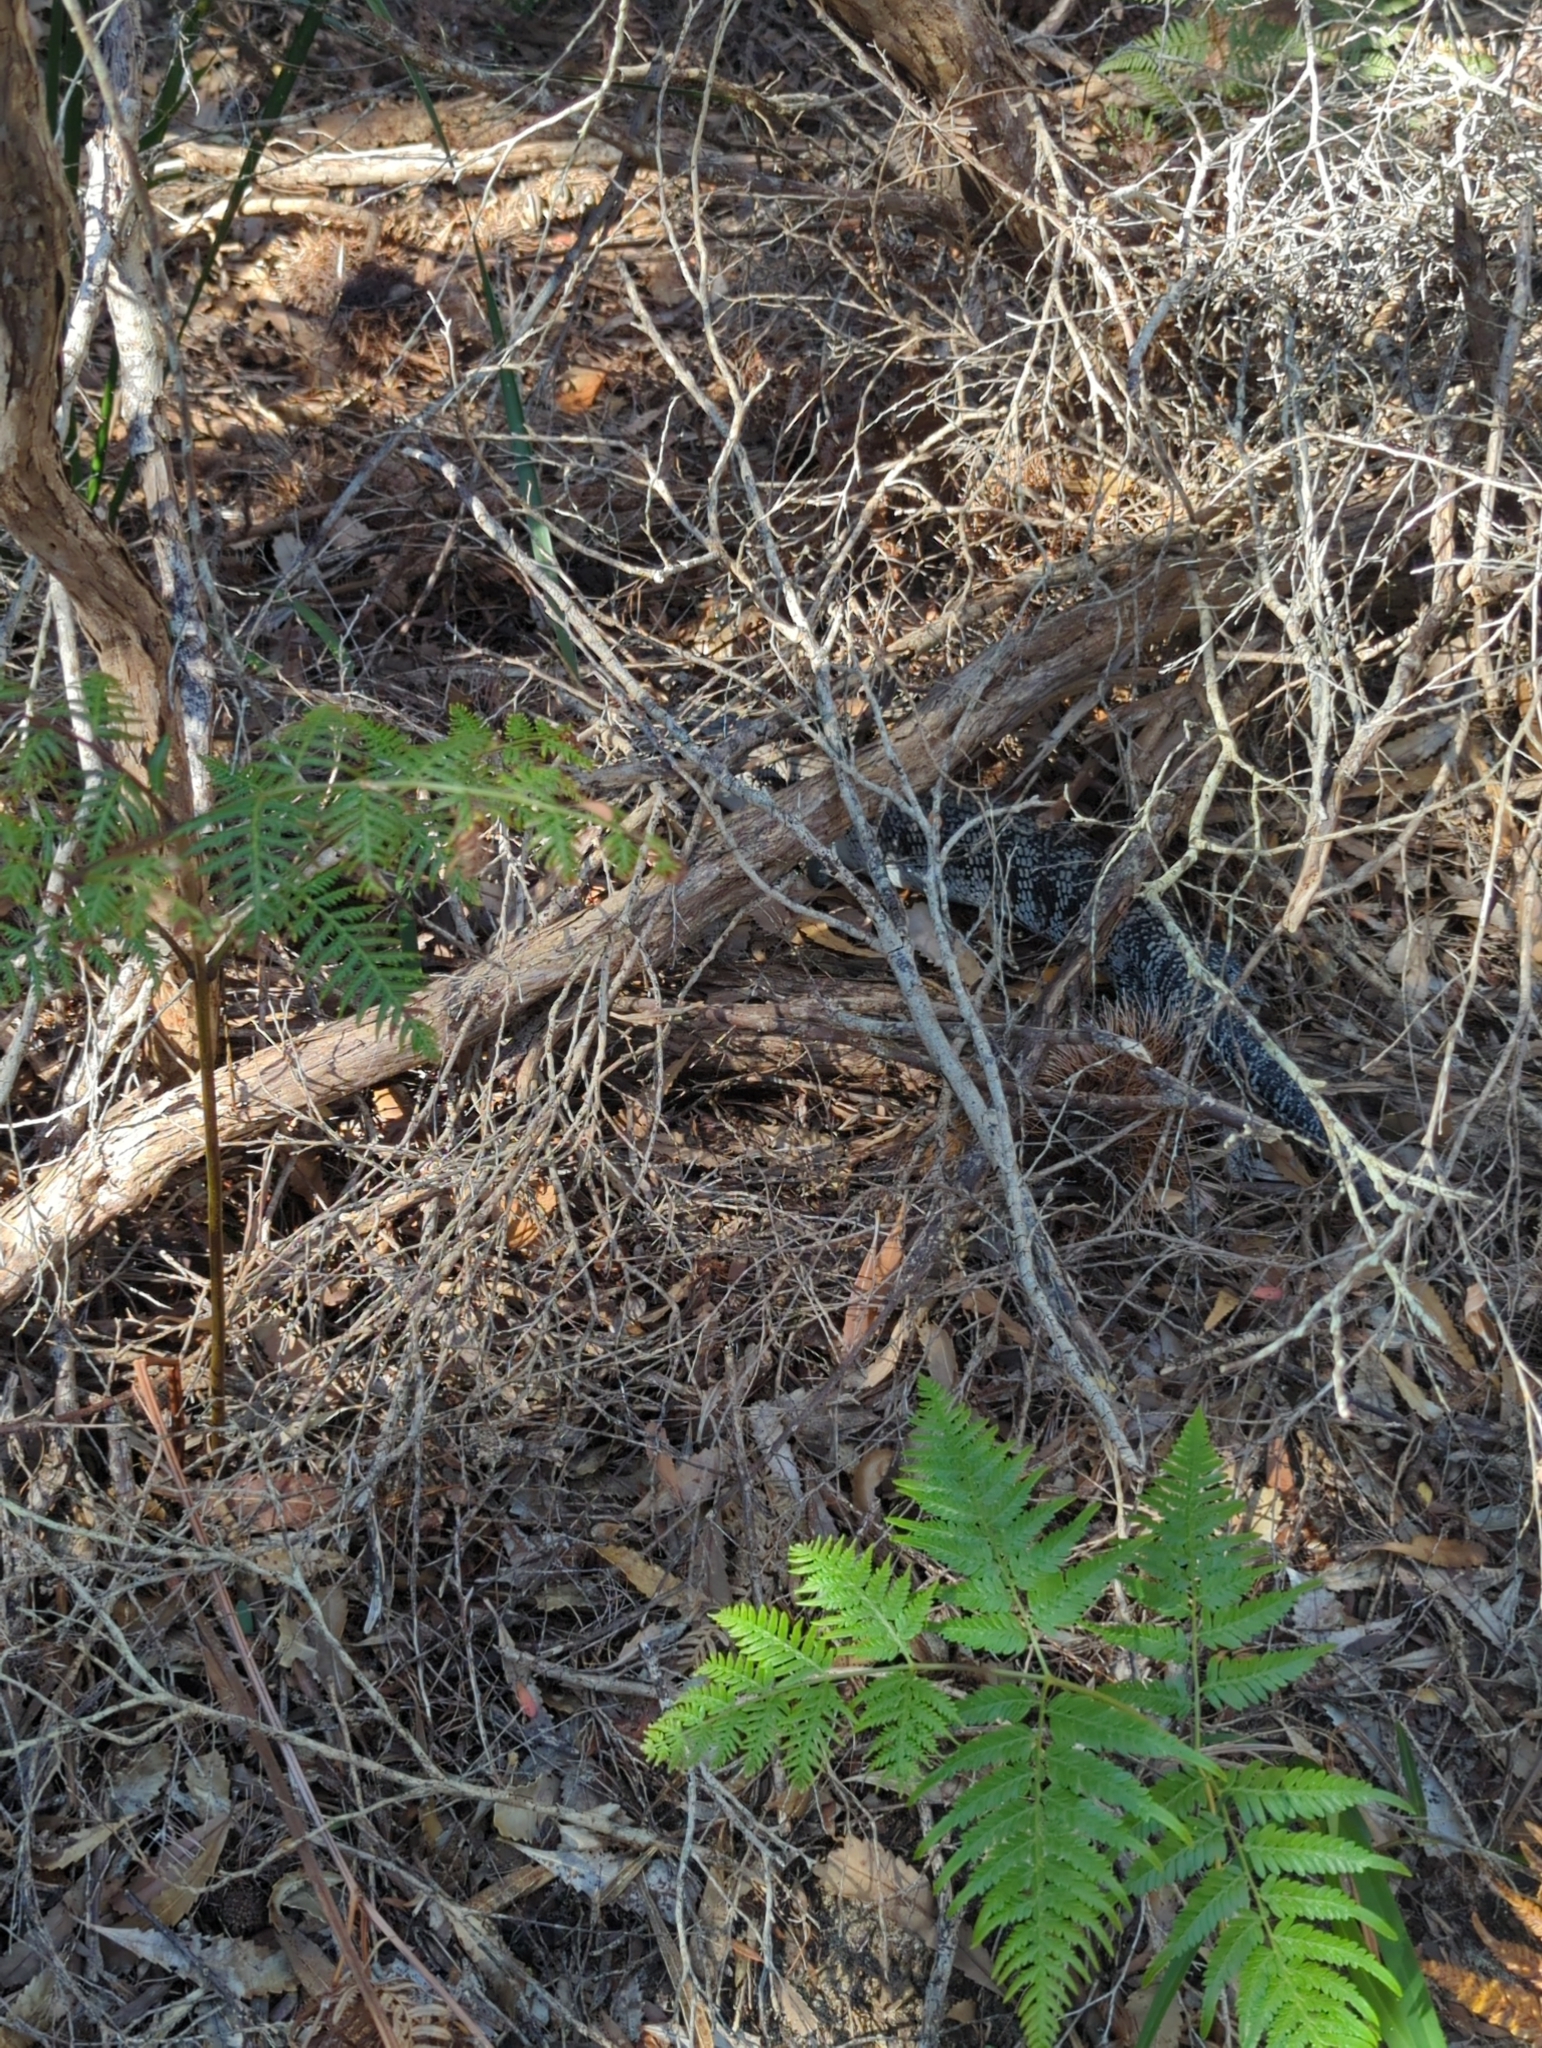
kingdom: Animalia
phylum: Chordata
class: Squamata
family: Scincidae
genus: Tiliqua
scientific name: Tiliqua scincoides
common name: Common bluetongue
